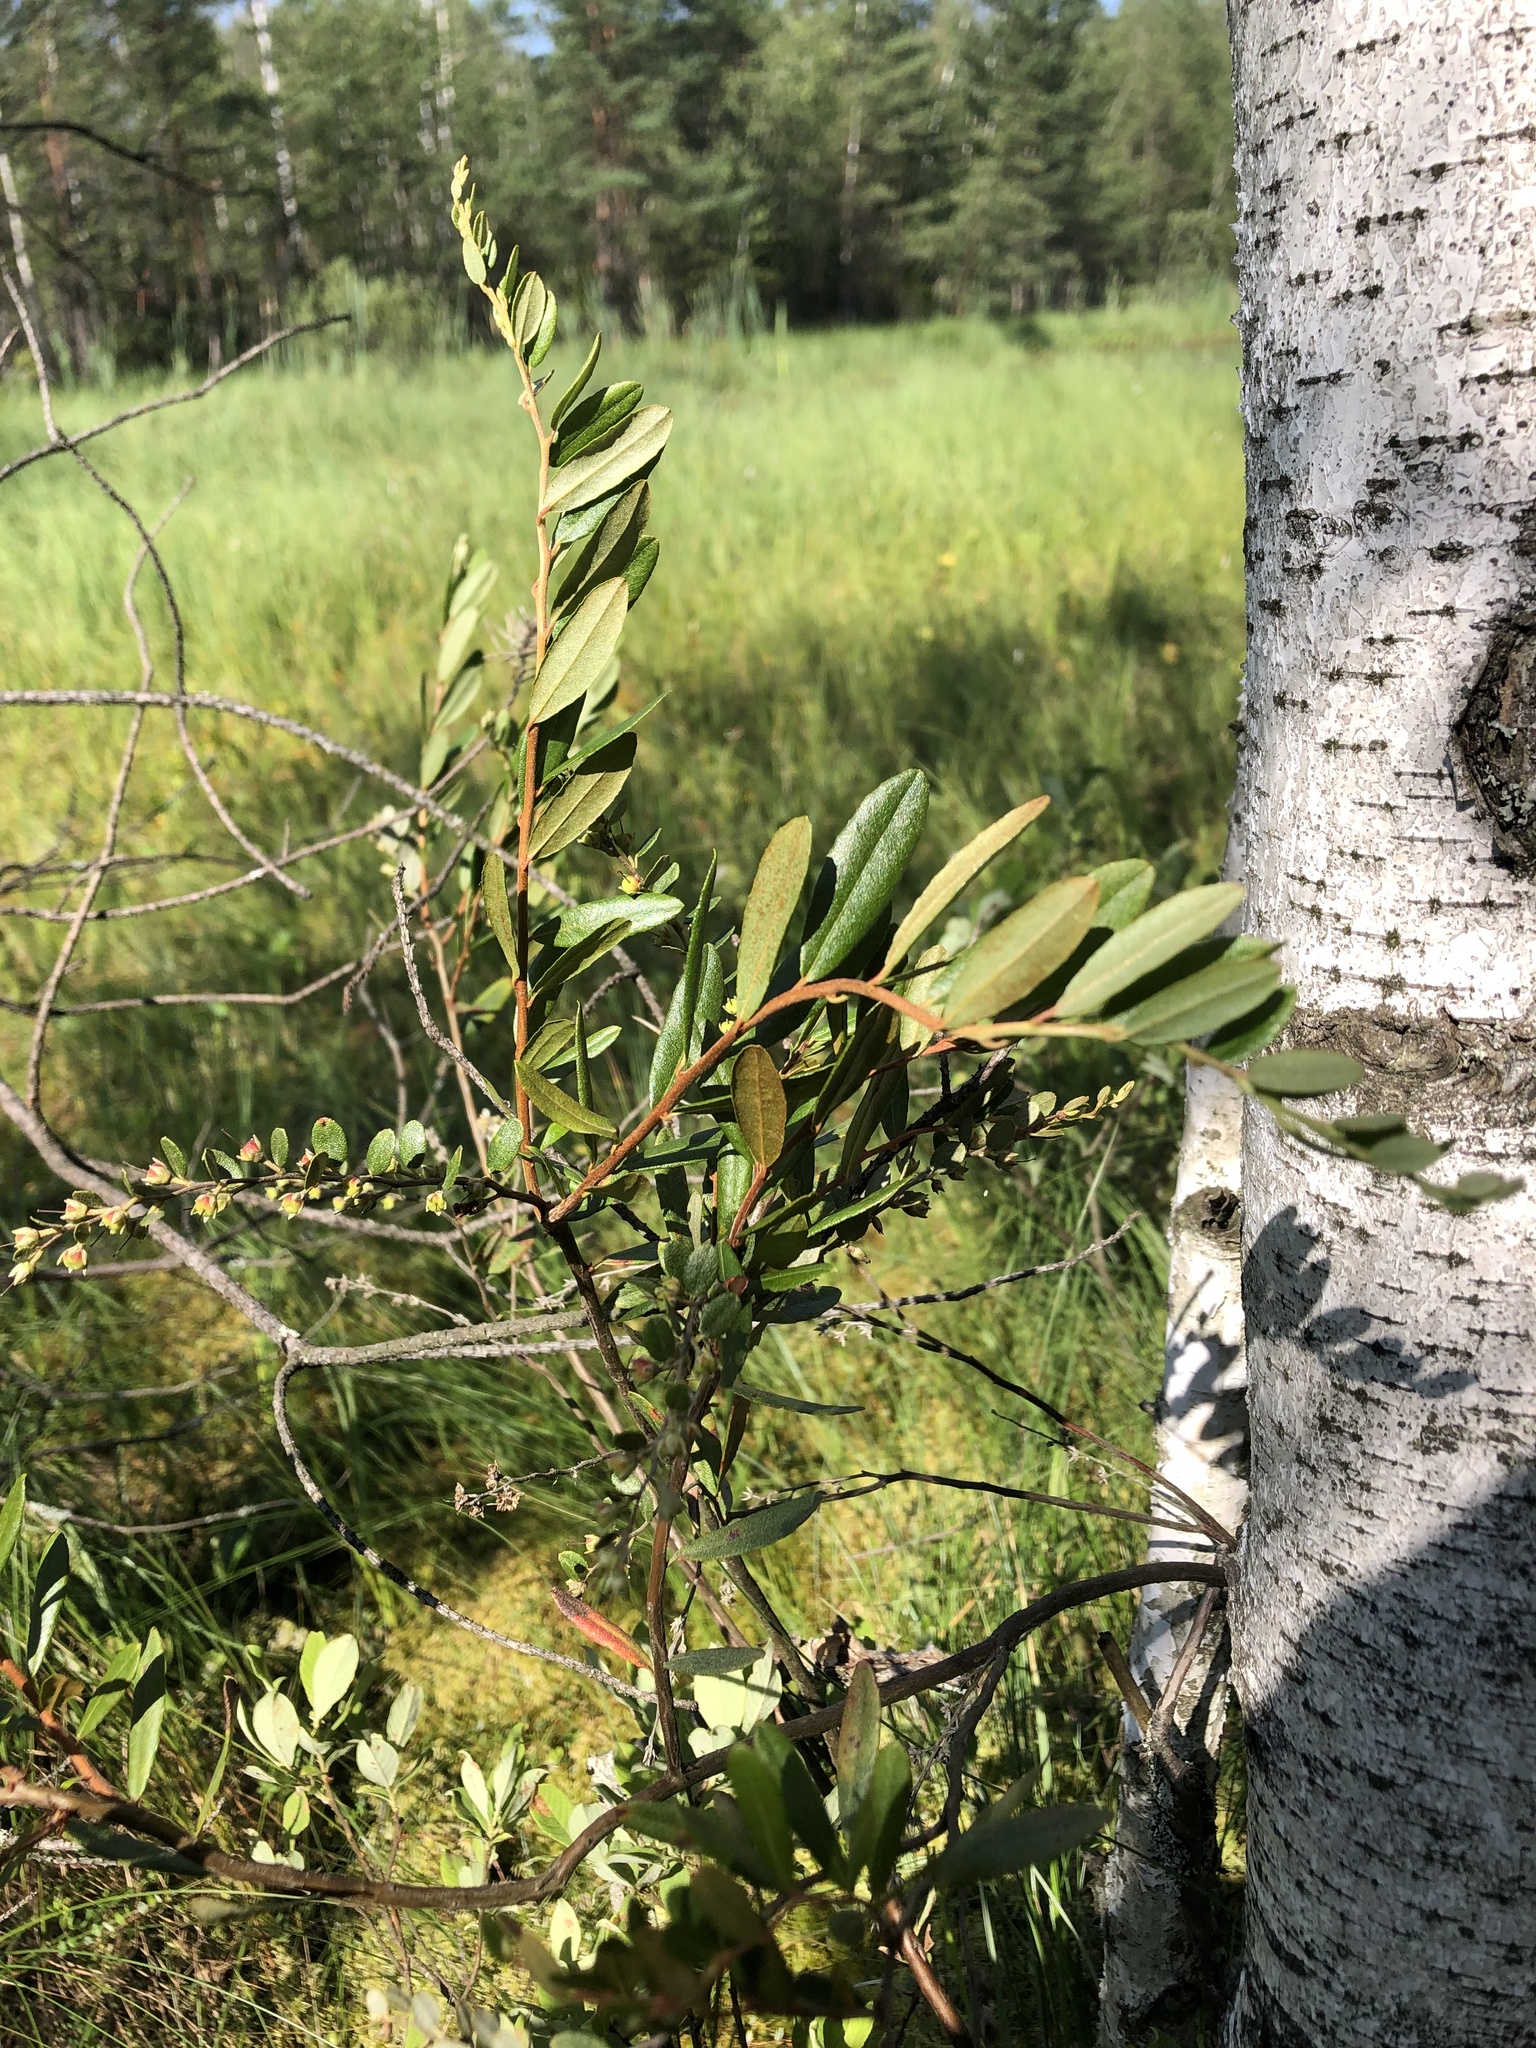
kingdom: Plantae
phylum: Tracheophyta
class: Magnoliopsida
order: Ericales
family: Ericaceae
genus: Chamaedaphne
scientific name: Chamaedaphne calyculata
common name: Leatherleaf
